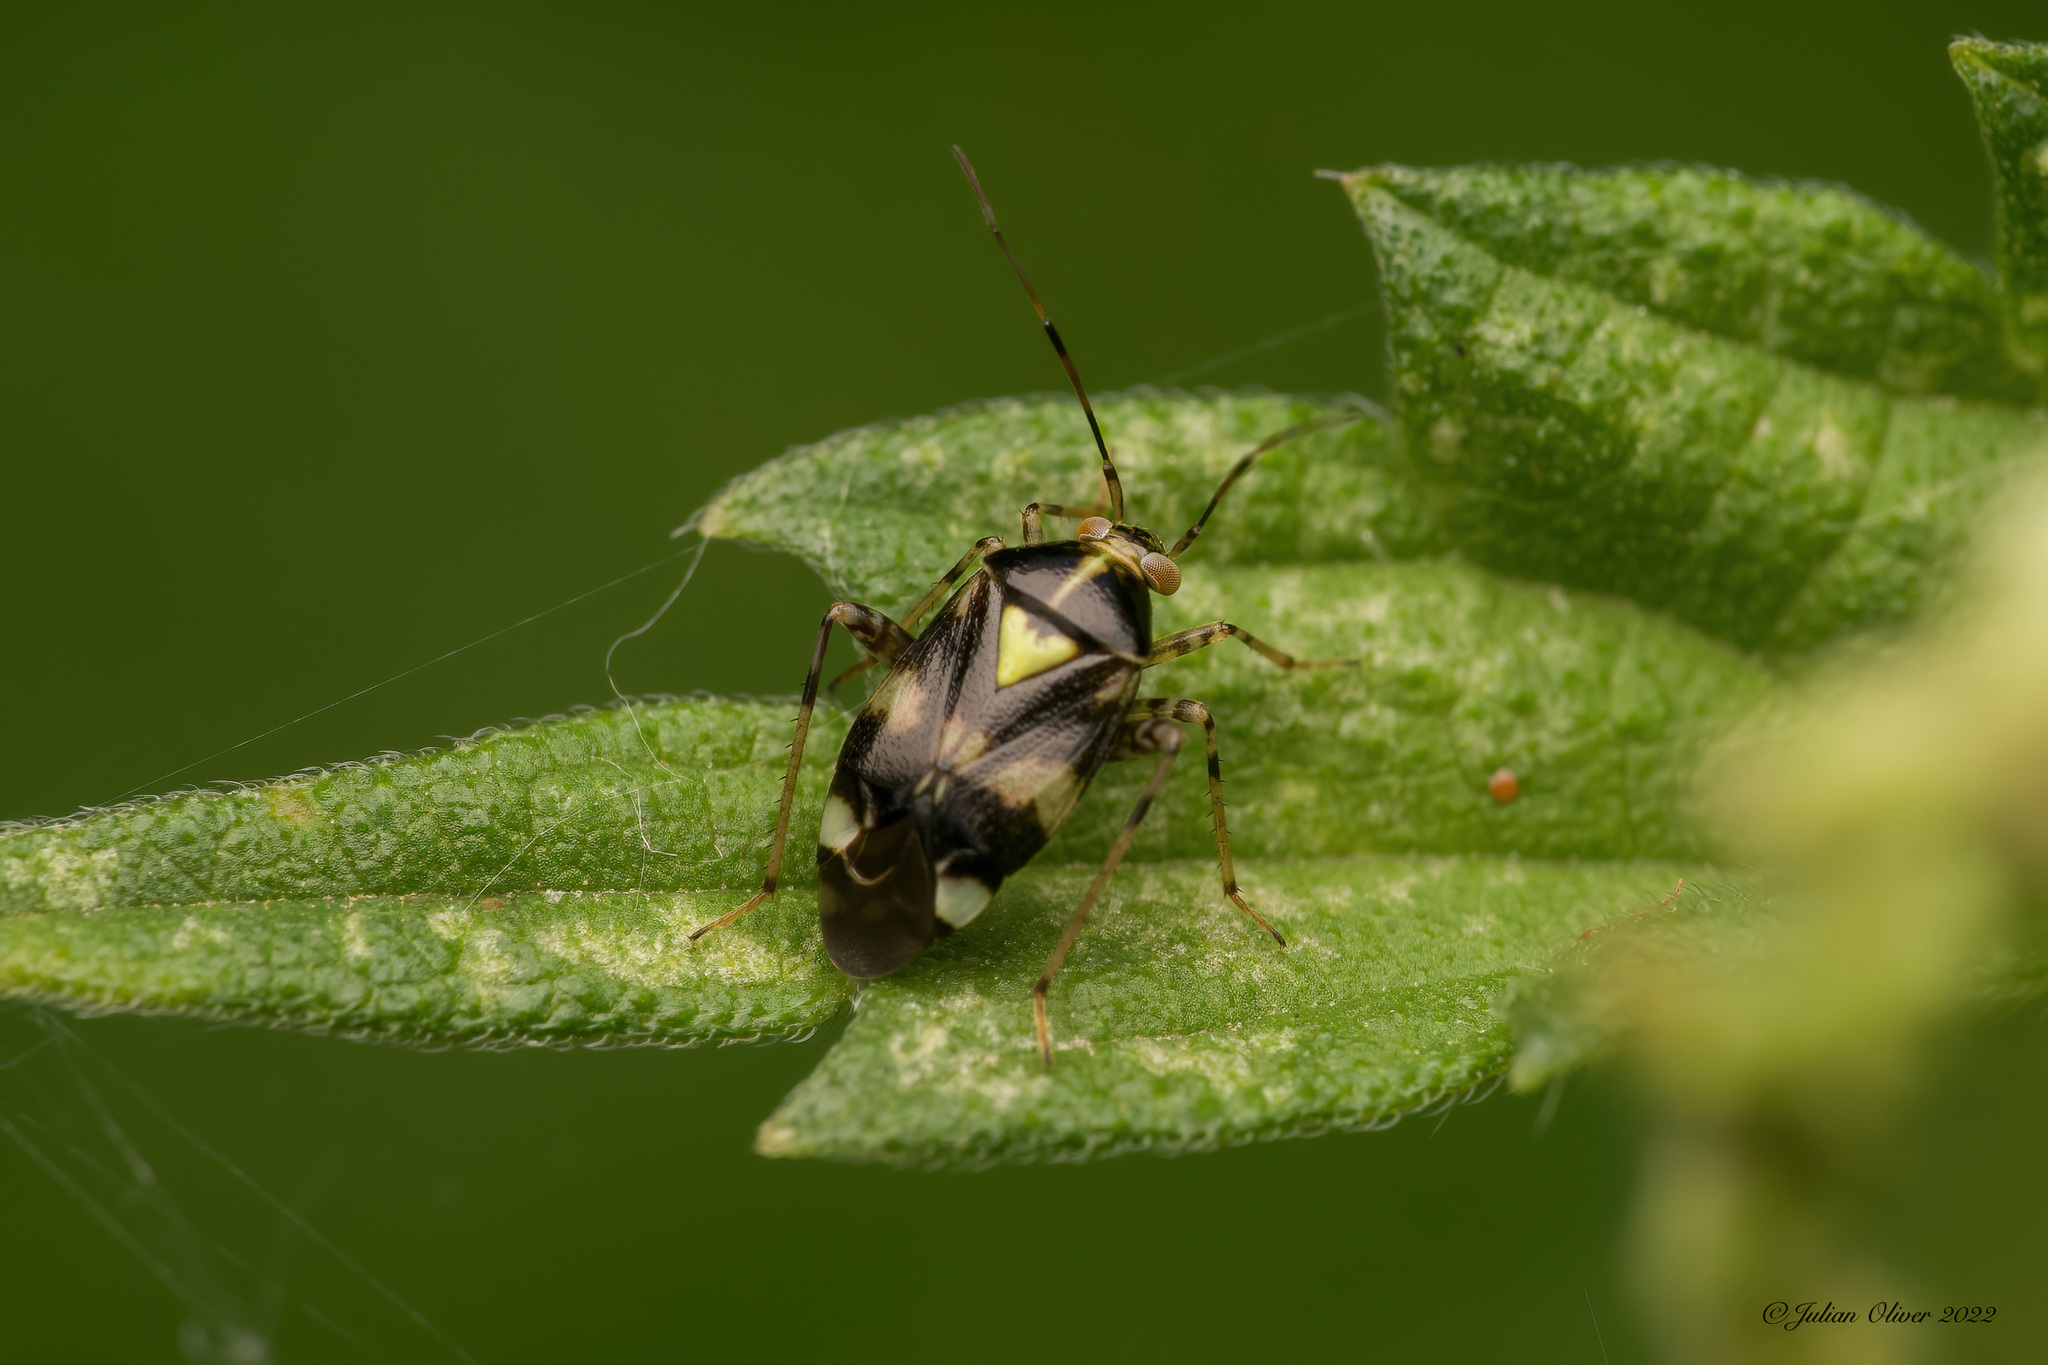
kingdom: Animalia
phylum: Arthropoda
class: Insecta
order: Hemiptera
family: Miridae
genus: Liocoris
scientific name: Liocoris tripustulatus
